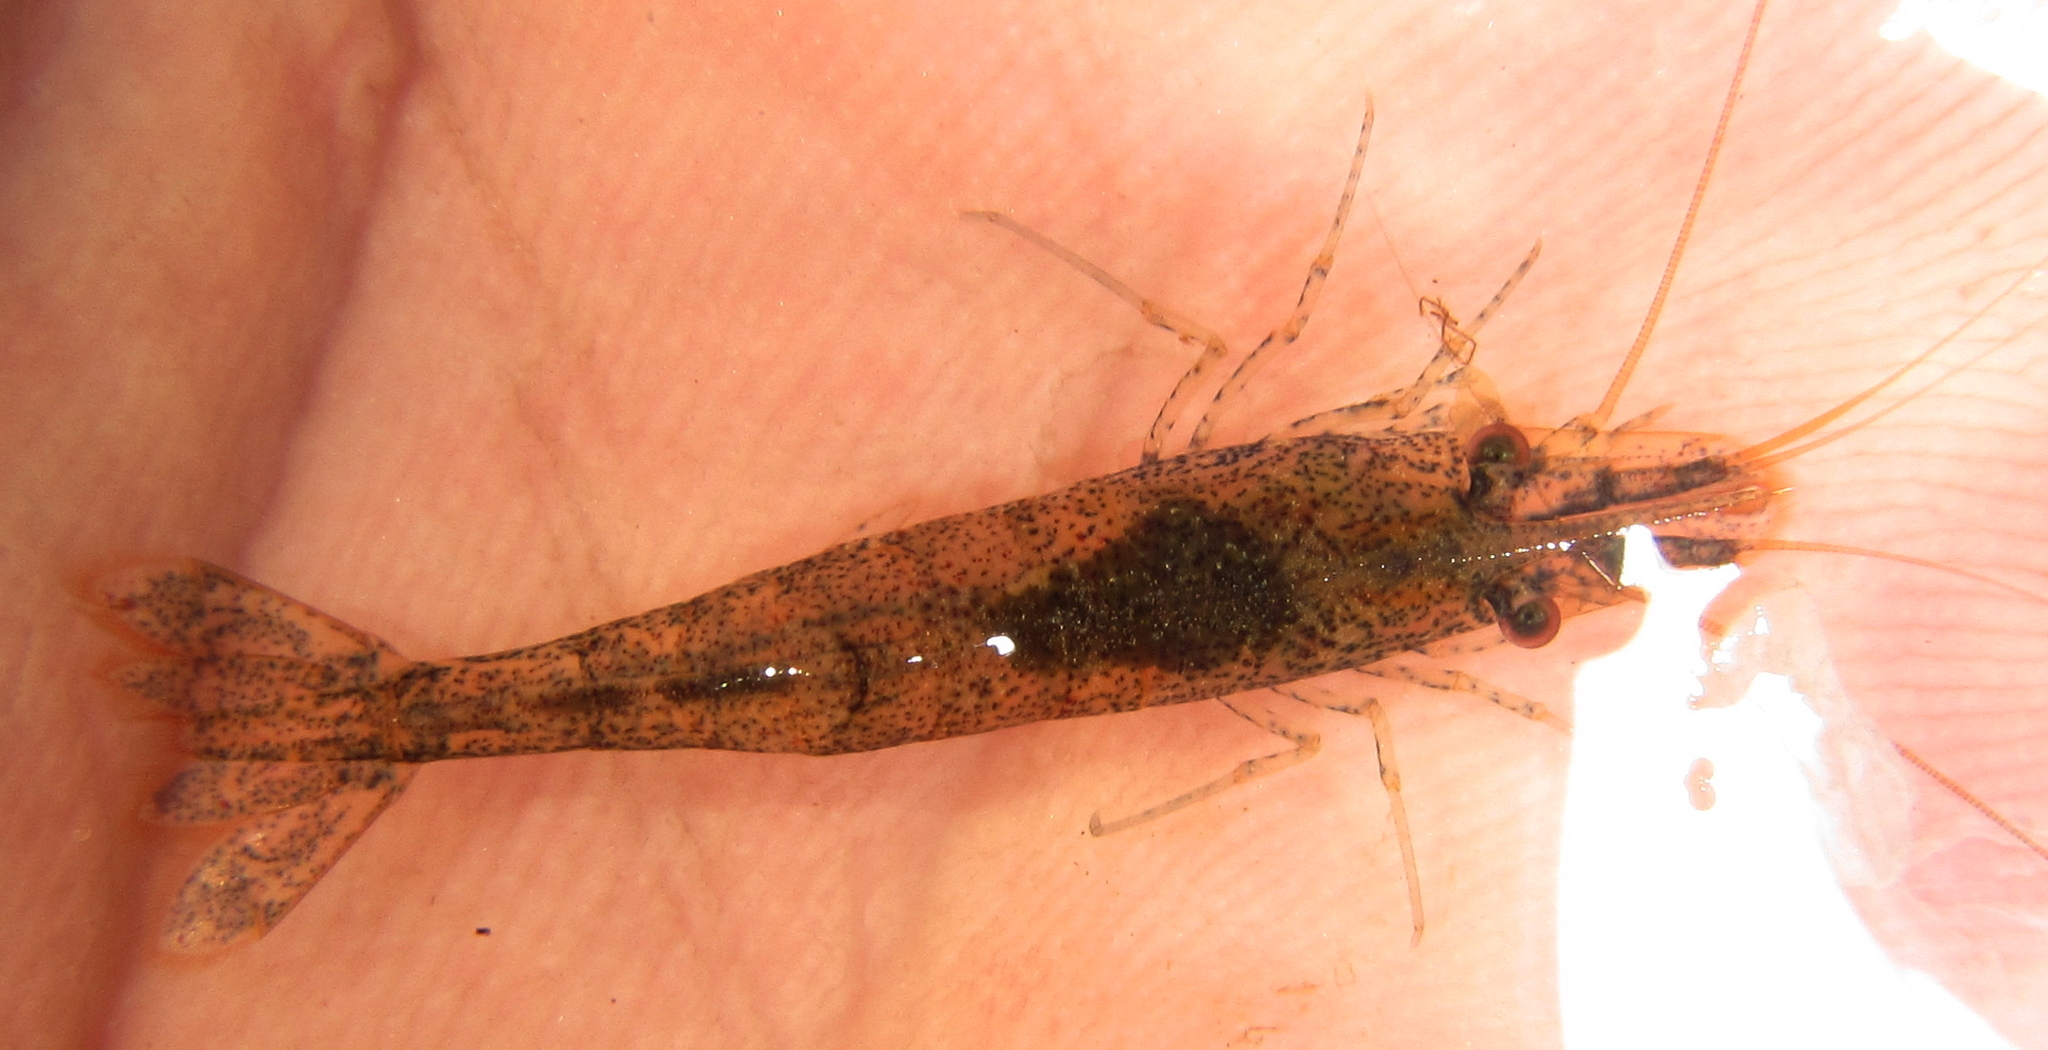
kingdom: Animalia
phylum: Arthropoda
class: Malacostraca
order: Decapoda
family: Atyidae
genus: Caridina
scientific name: Caridina togoensis
